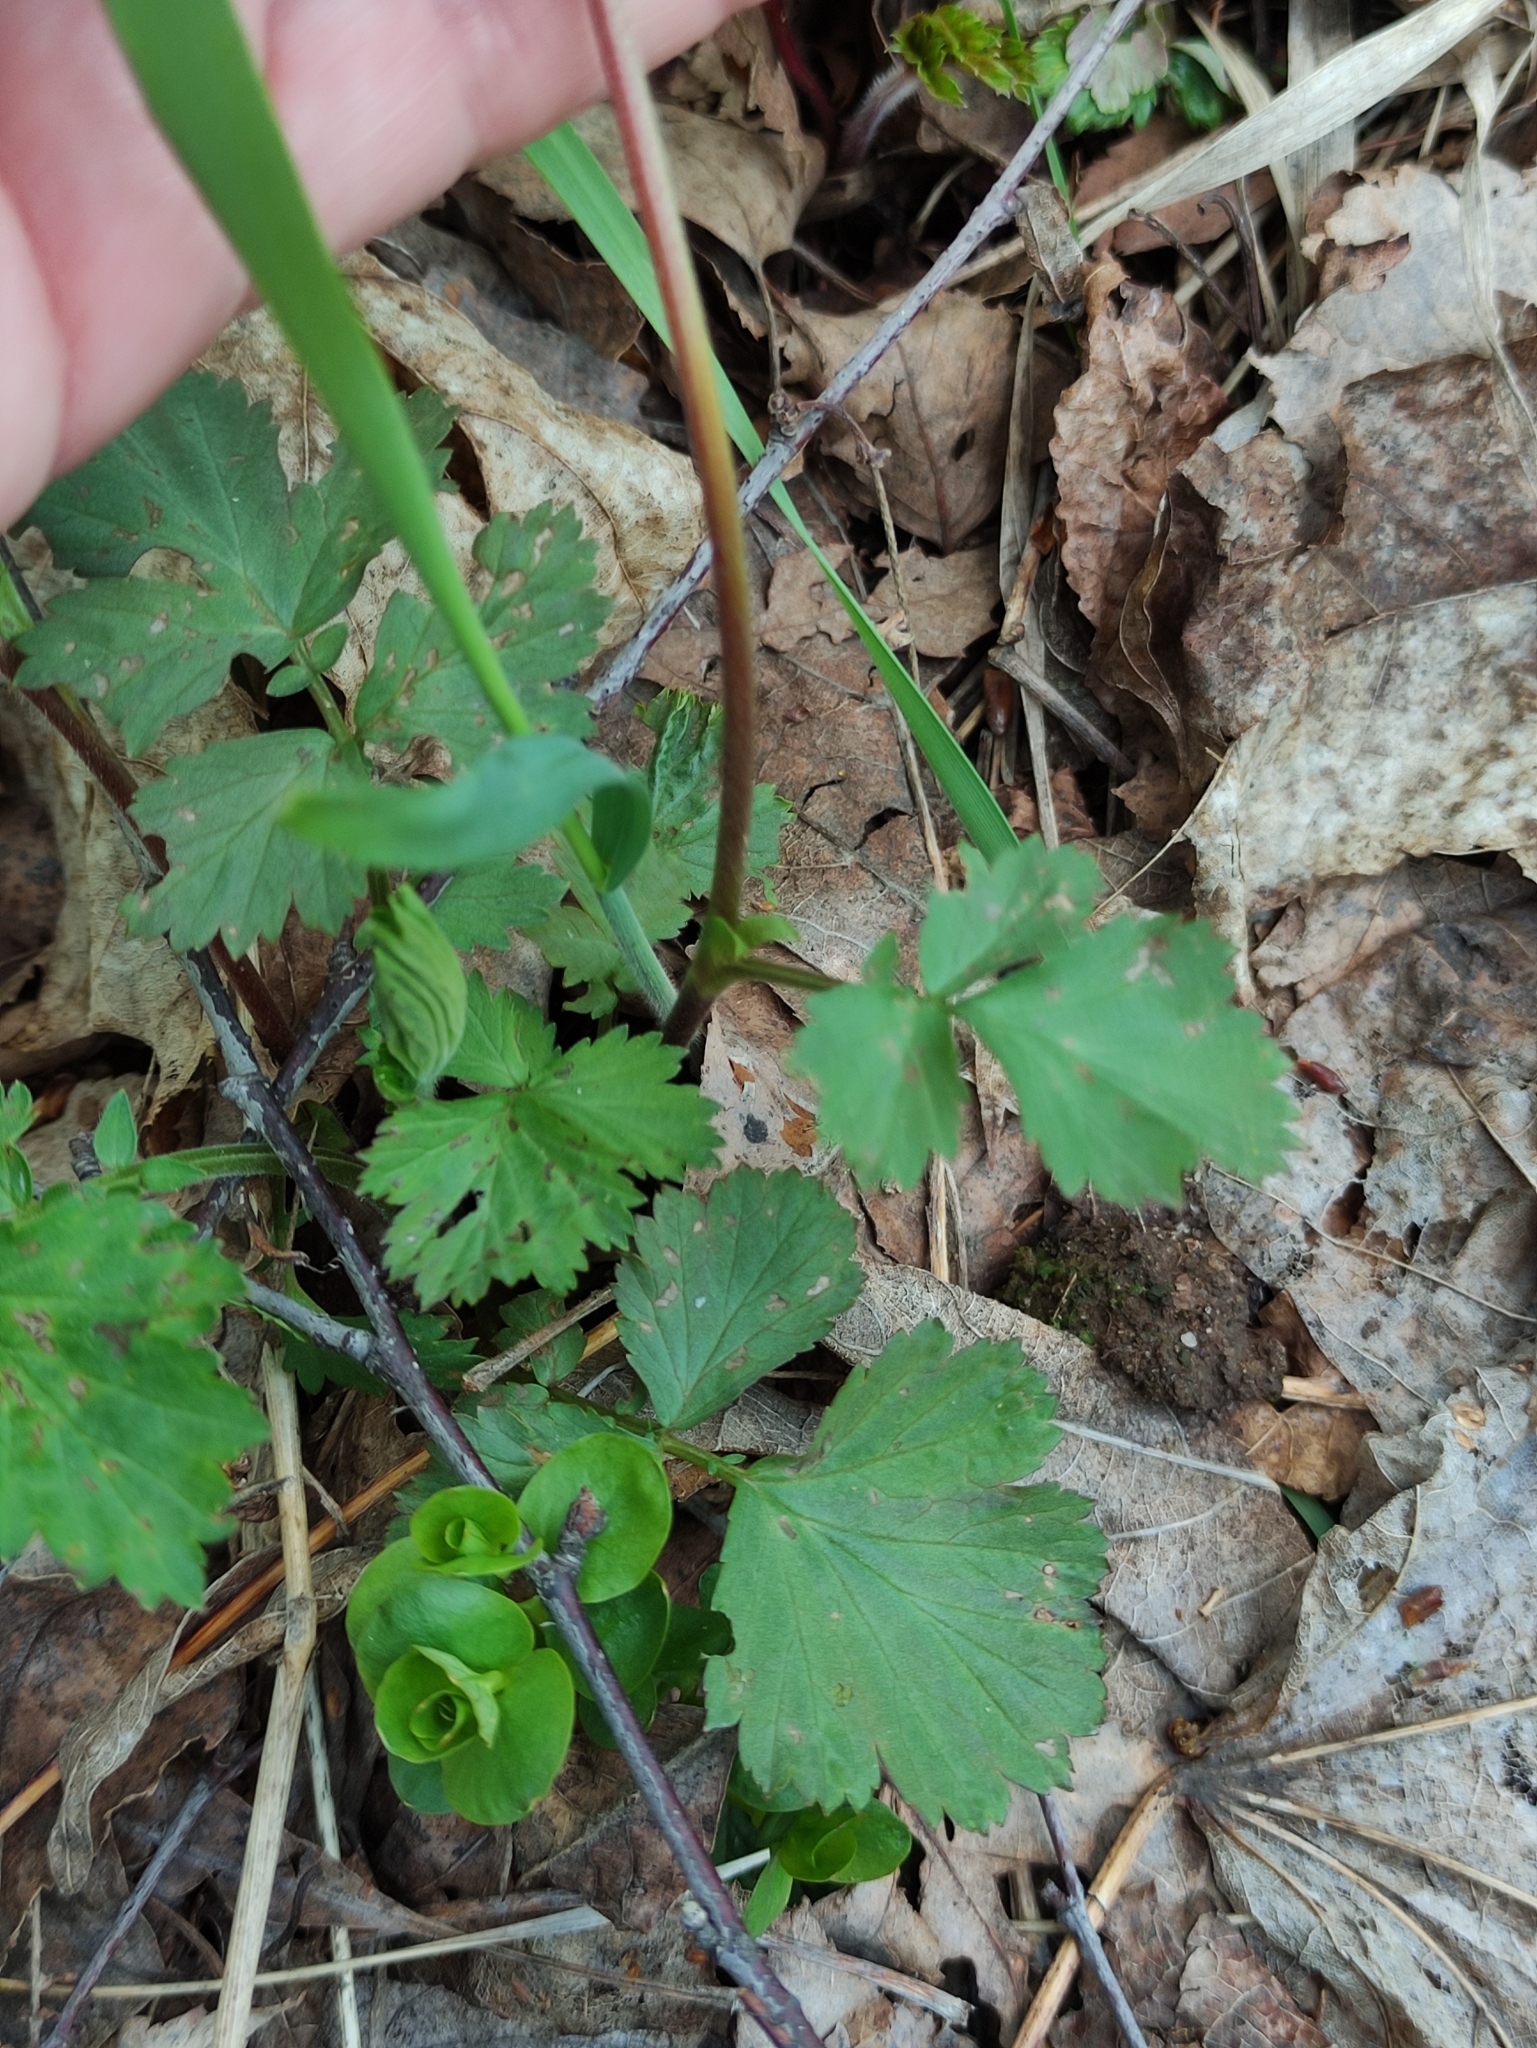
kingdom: Plantae
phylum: Tracheophyta
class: Magnoliopsida
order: Rosales
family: Rosaceae
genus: Geum
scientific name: Geum rivale
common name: Water avens
